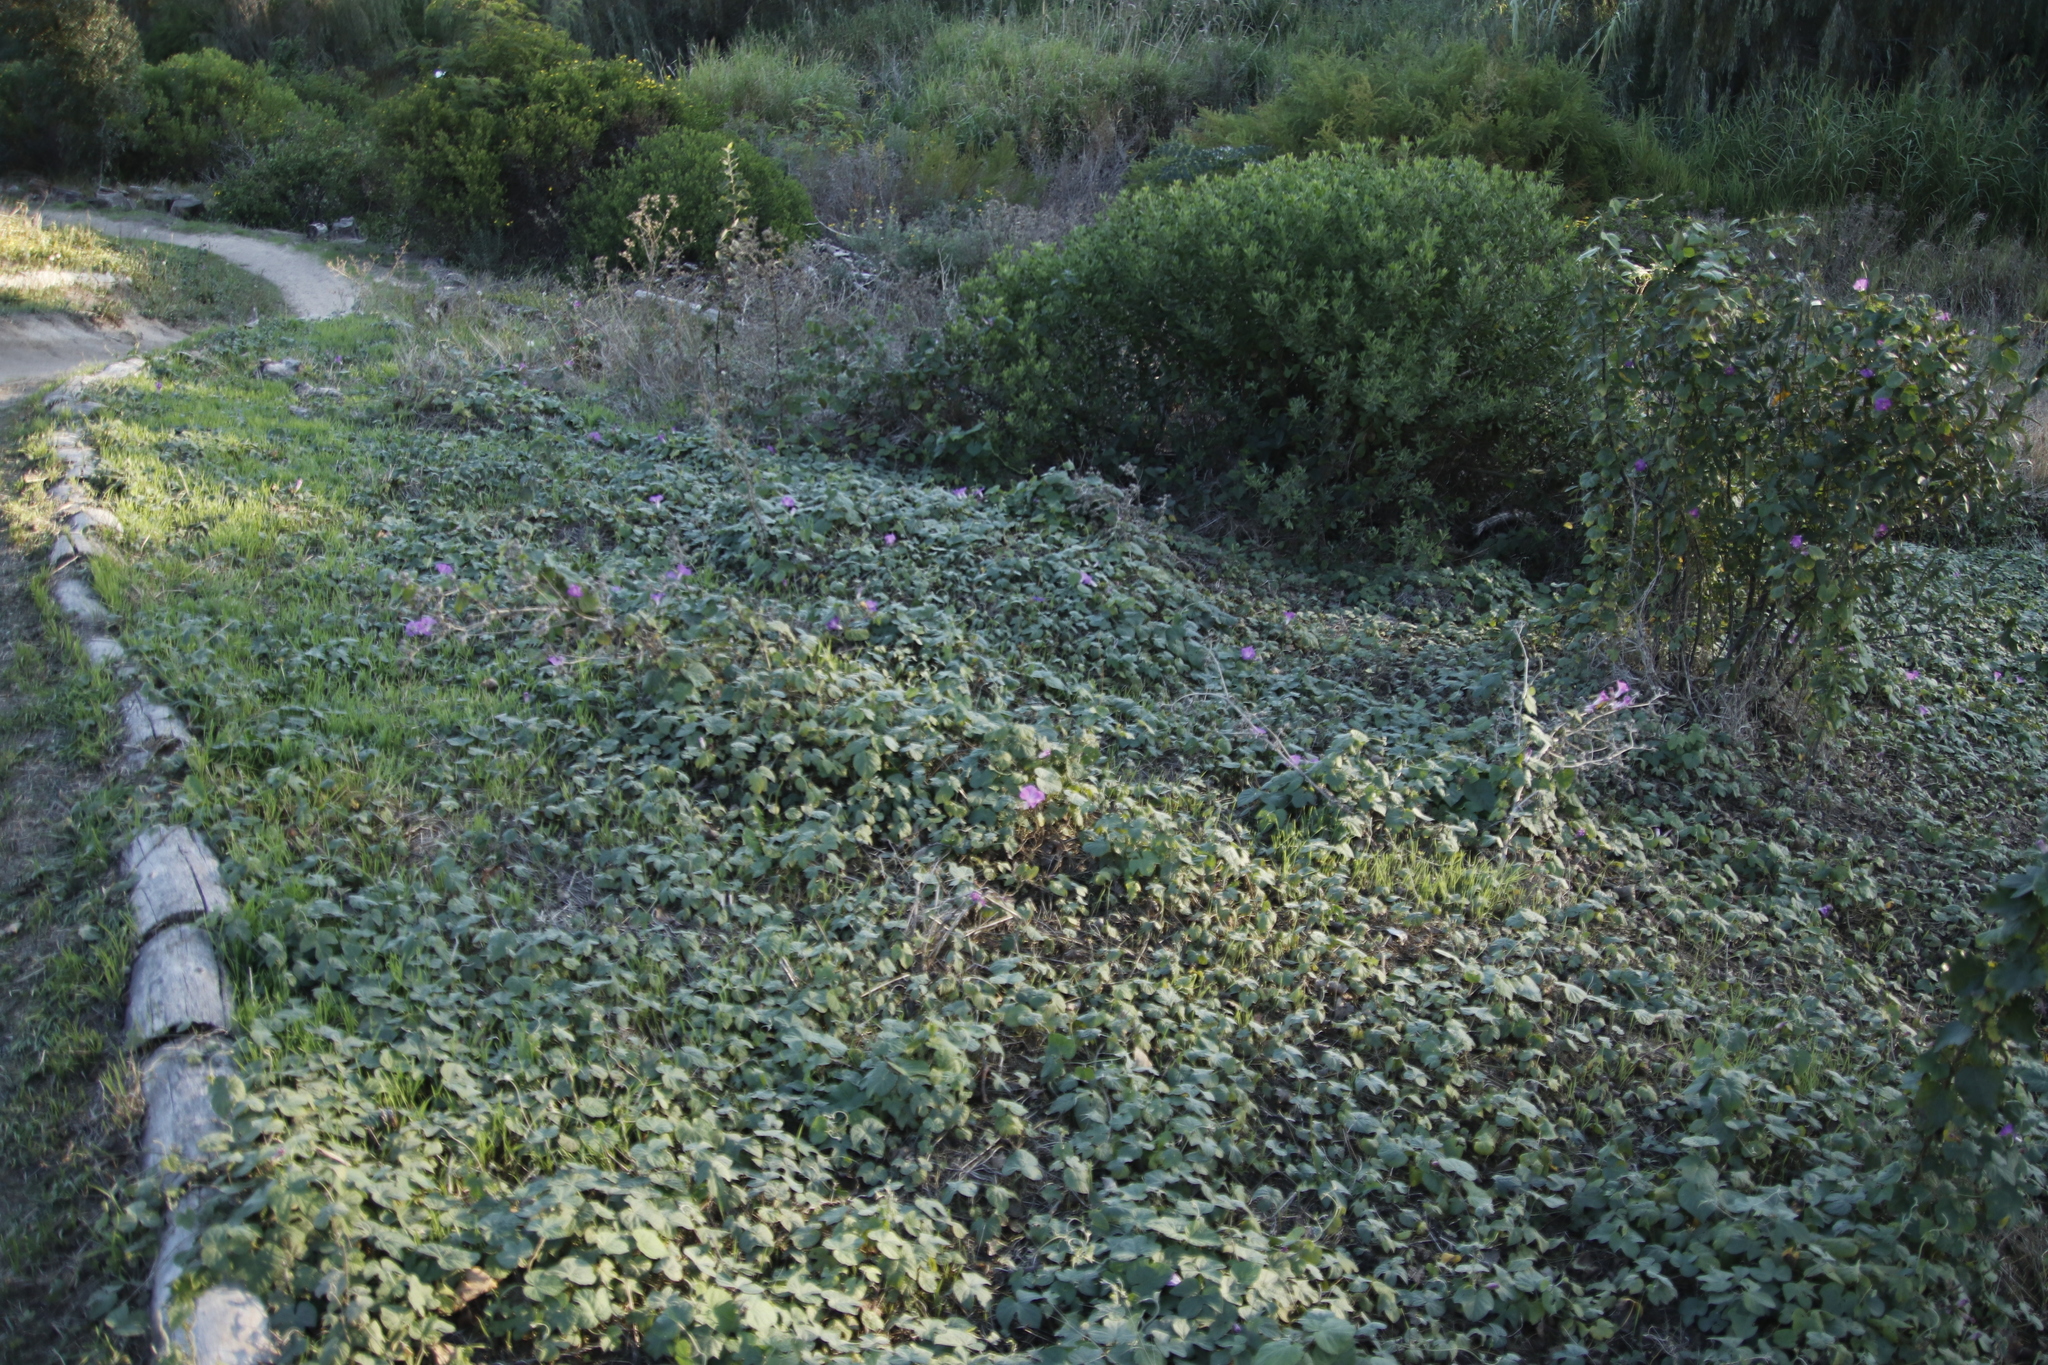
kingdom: Plantae
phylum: Tracheophyta
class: Magnoliopsida
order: Solanales
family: Convolvulaceae
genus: Ipomoea
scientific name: Ipomoea indica
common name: Blue dawnflower
